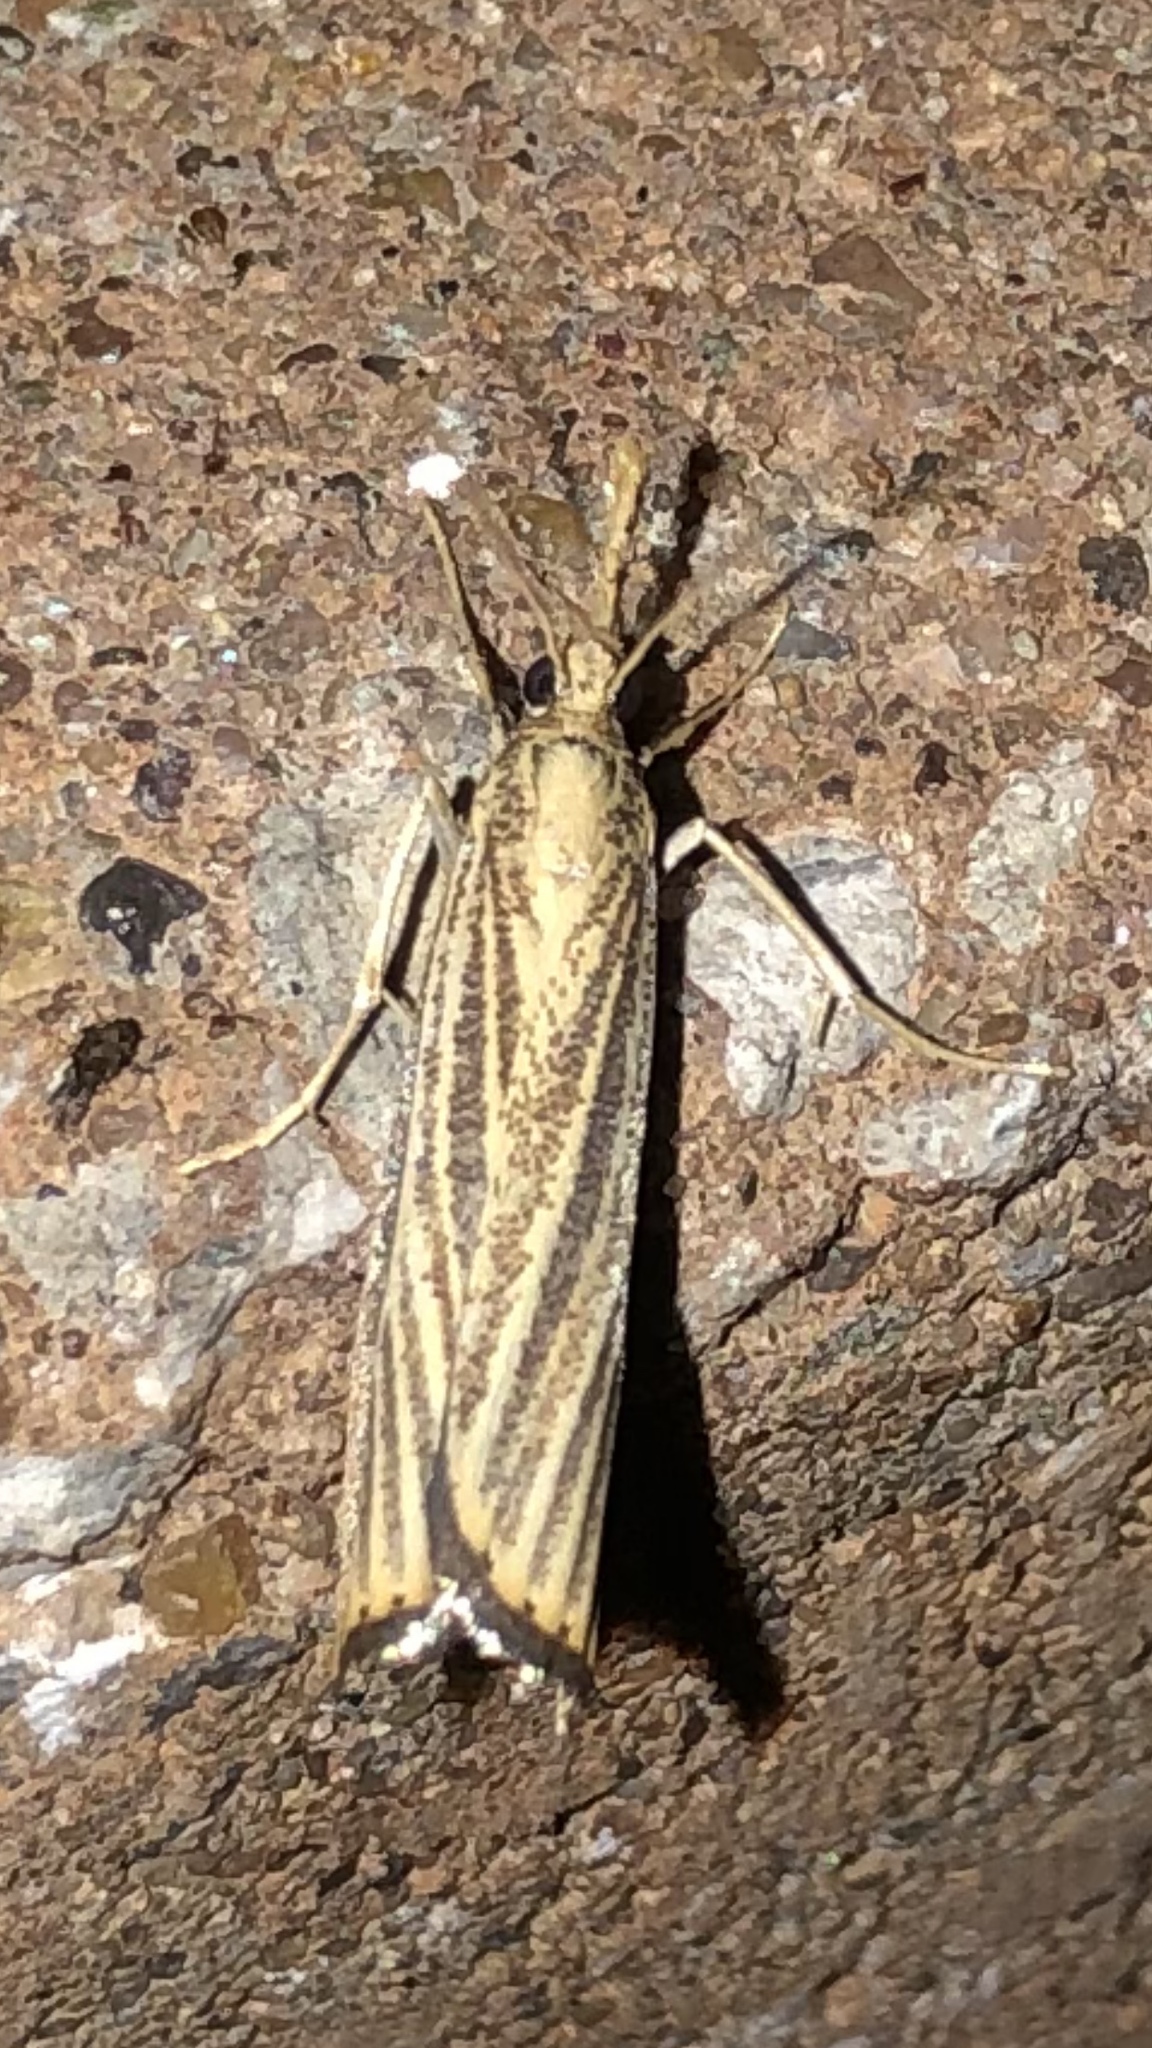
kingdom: Animalia
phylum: Arthropoda
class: Insecta
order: Lepidoptera
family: Crambidae
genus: Agriphila
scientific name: Agriphila vulgivagellus
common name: Vagabond crambus moth
